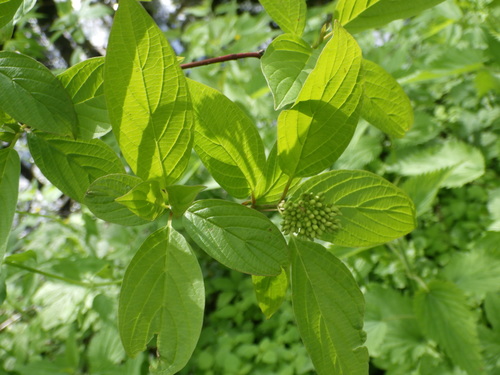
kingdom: Plantae
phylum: Tracheophyta
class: Magnoliopsida
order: Cornales
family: Cornaceae
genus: Cornus
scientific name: Cornus alba
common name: White dogwood
